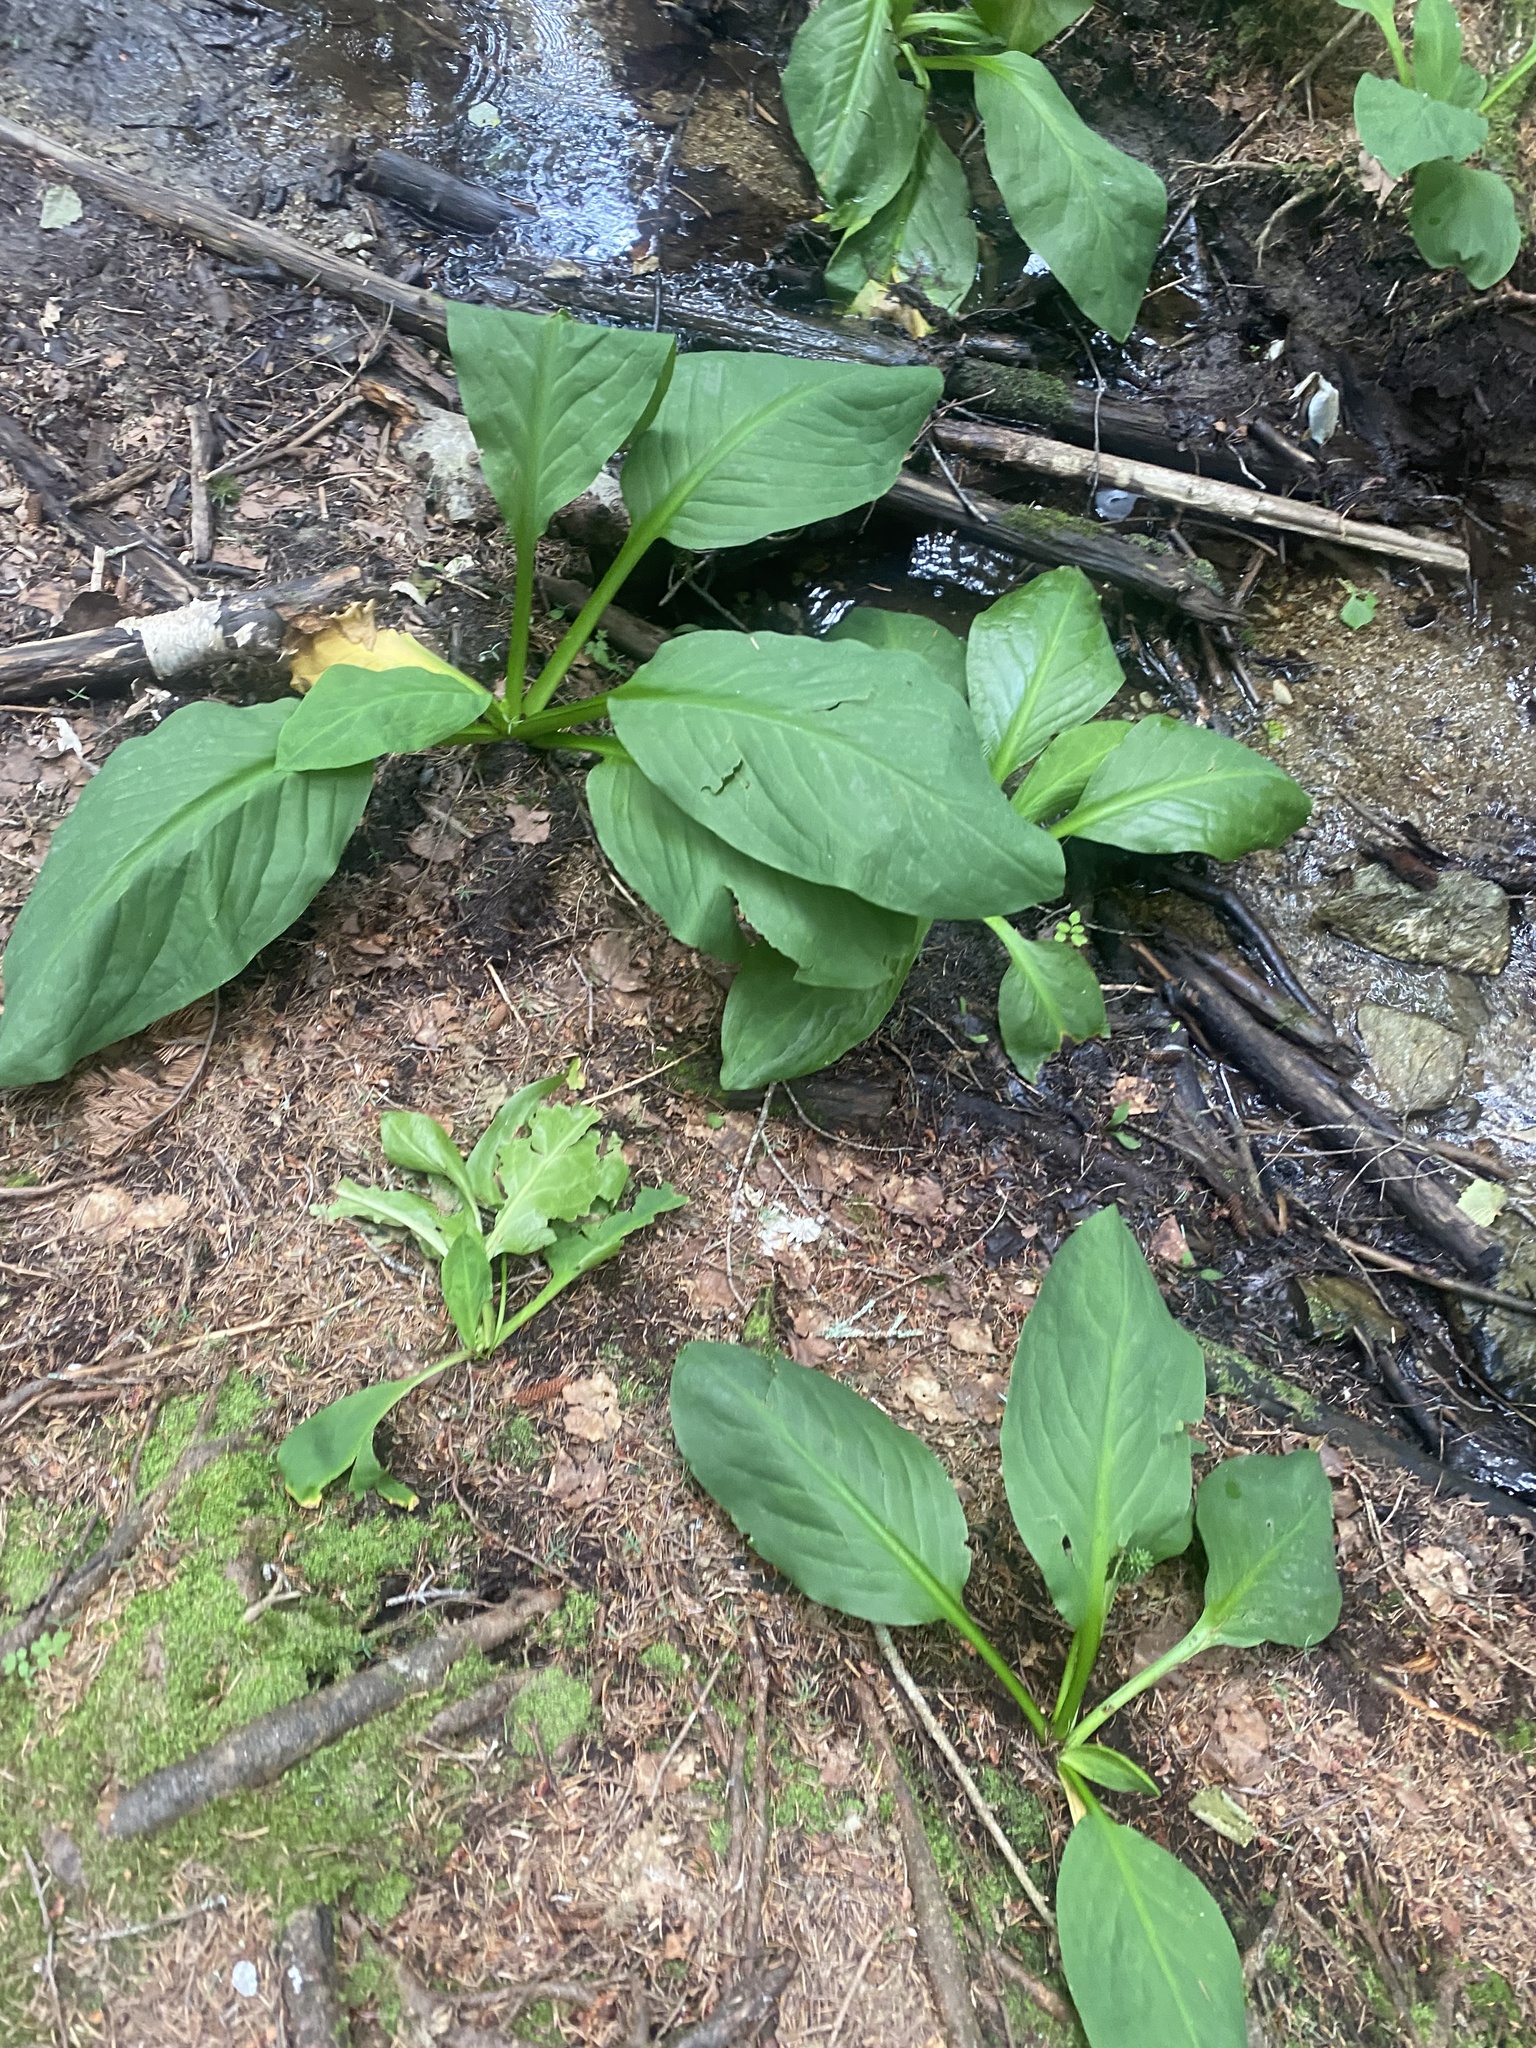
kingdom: Plantae
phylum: Tracheophyta
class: Liliopsida
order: Alismatales
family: Araceae
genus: Lysichiton
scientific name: Lysichiton camtschatcensis
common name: Asian skunk-cabbage
